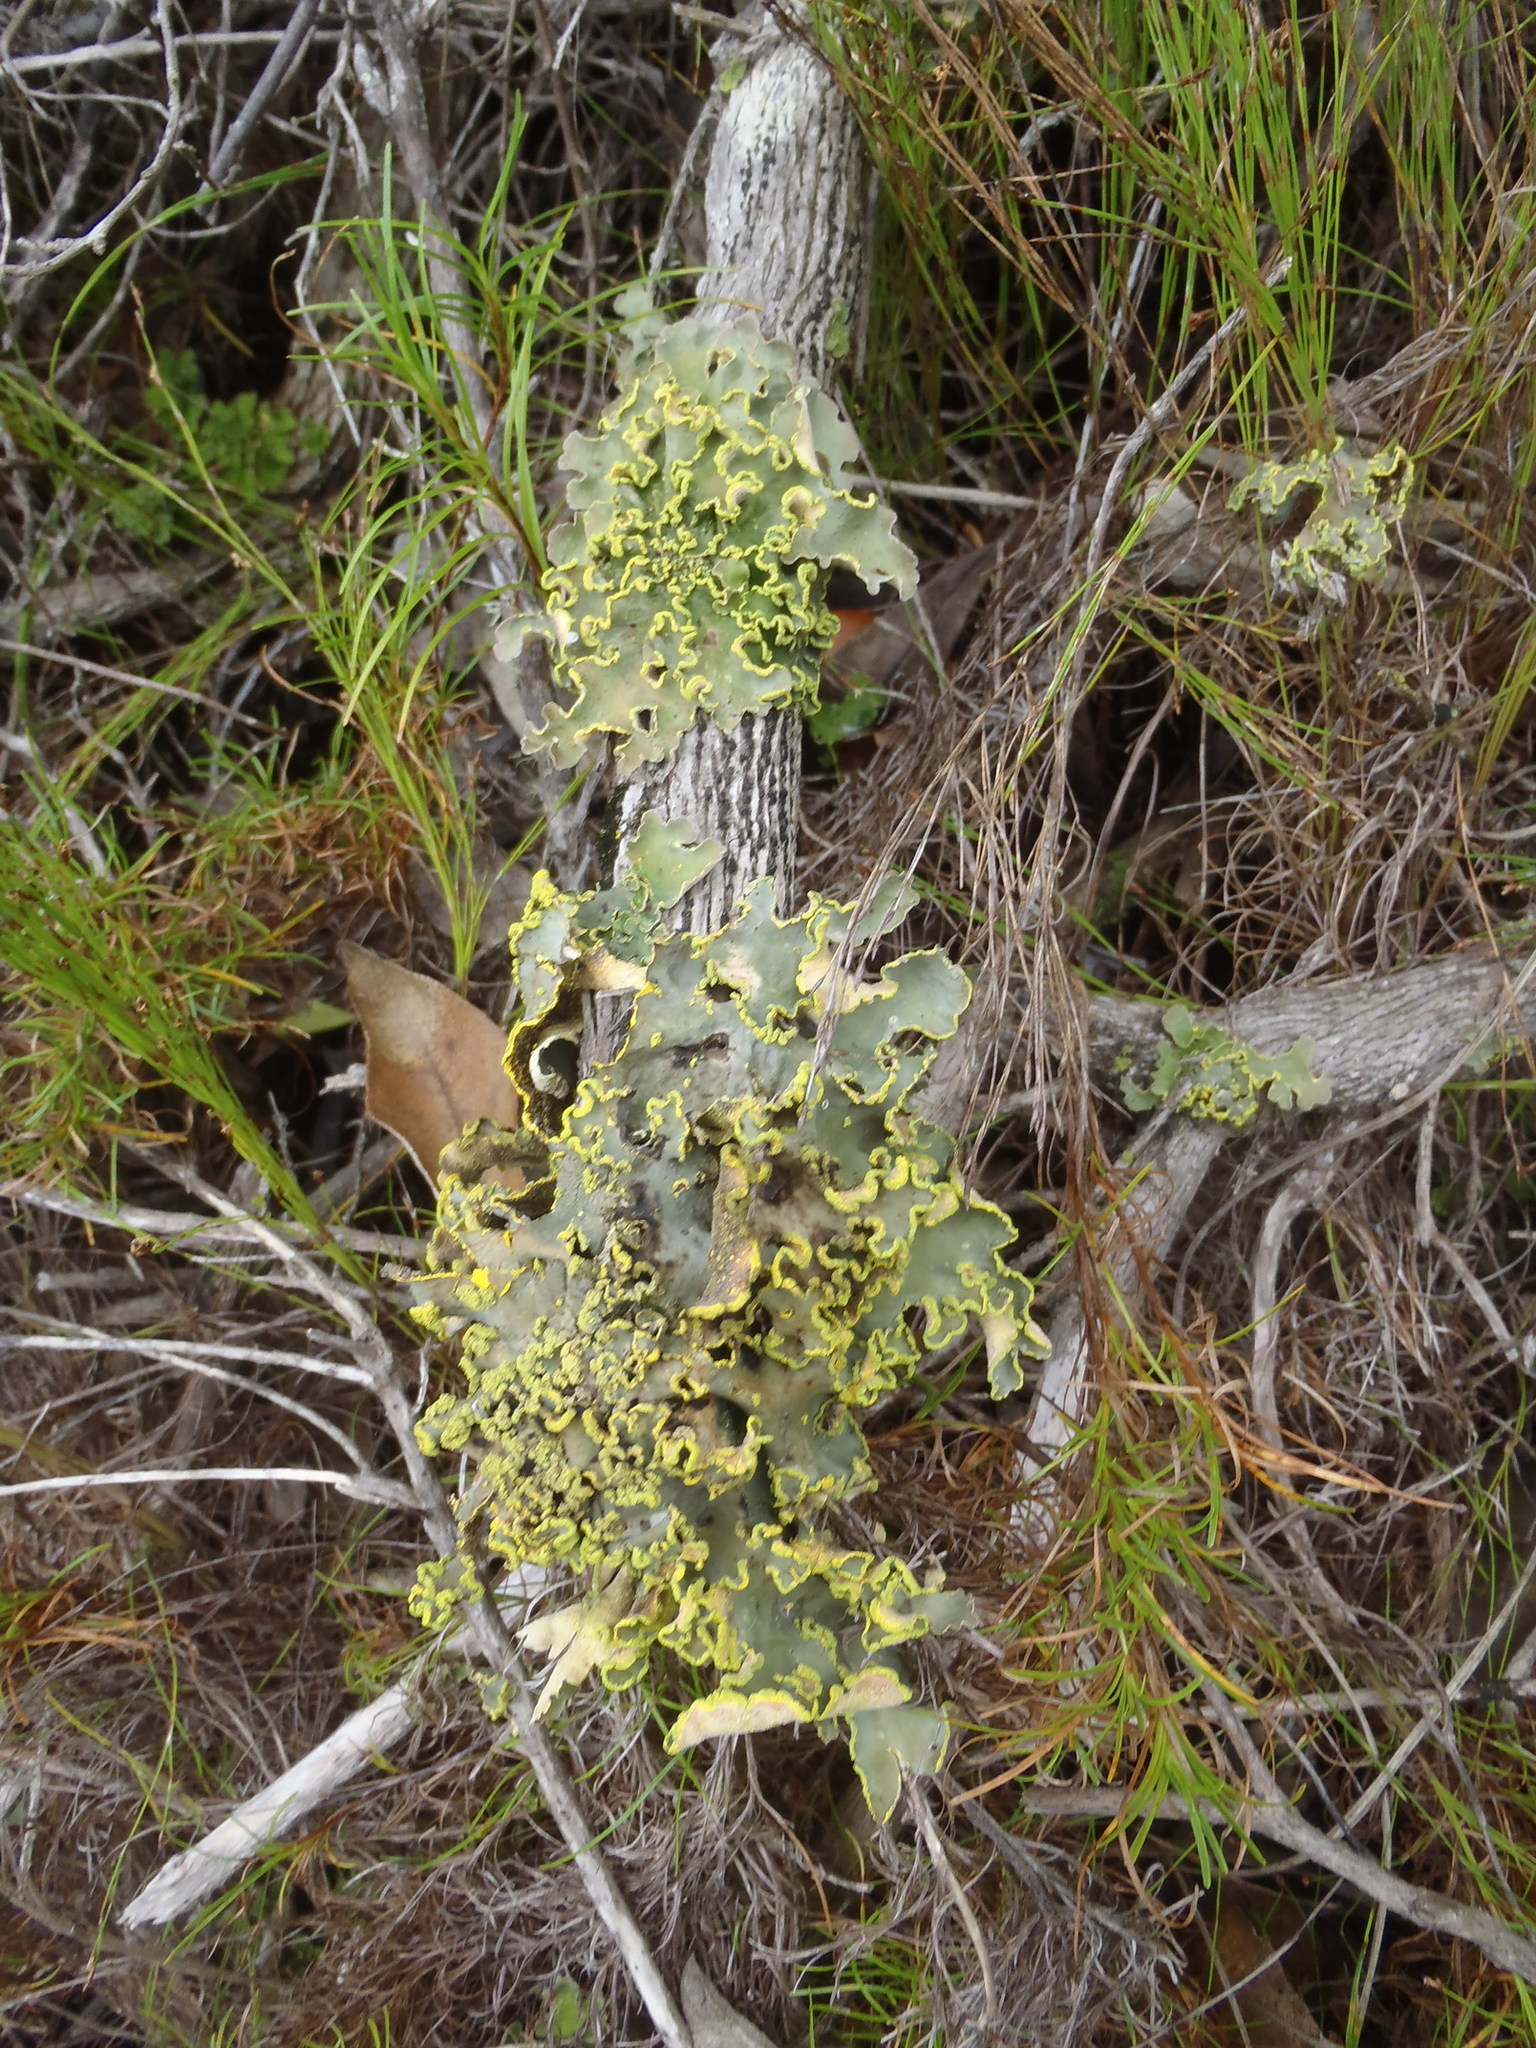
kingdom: Fungi
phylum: Ascomycota
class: Lecanoromycetes
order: Peltigerales
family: Lobariaceae
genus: Pseudocyphellaria
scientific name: Pseudocyphellaria aurata
